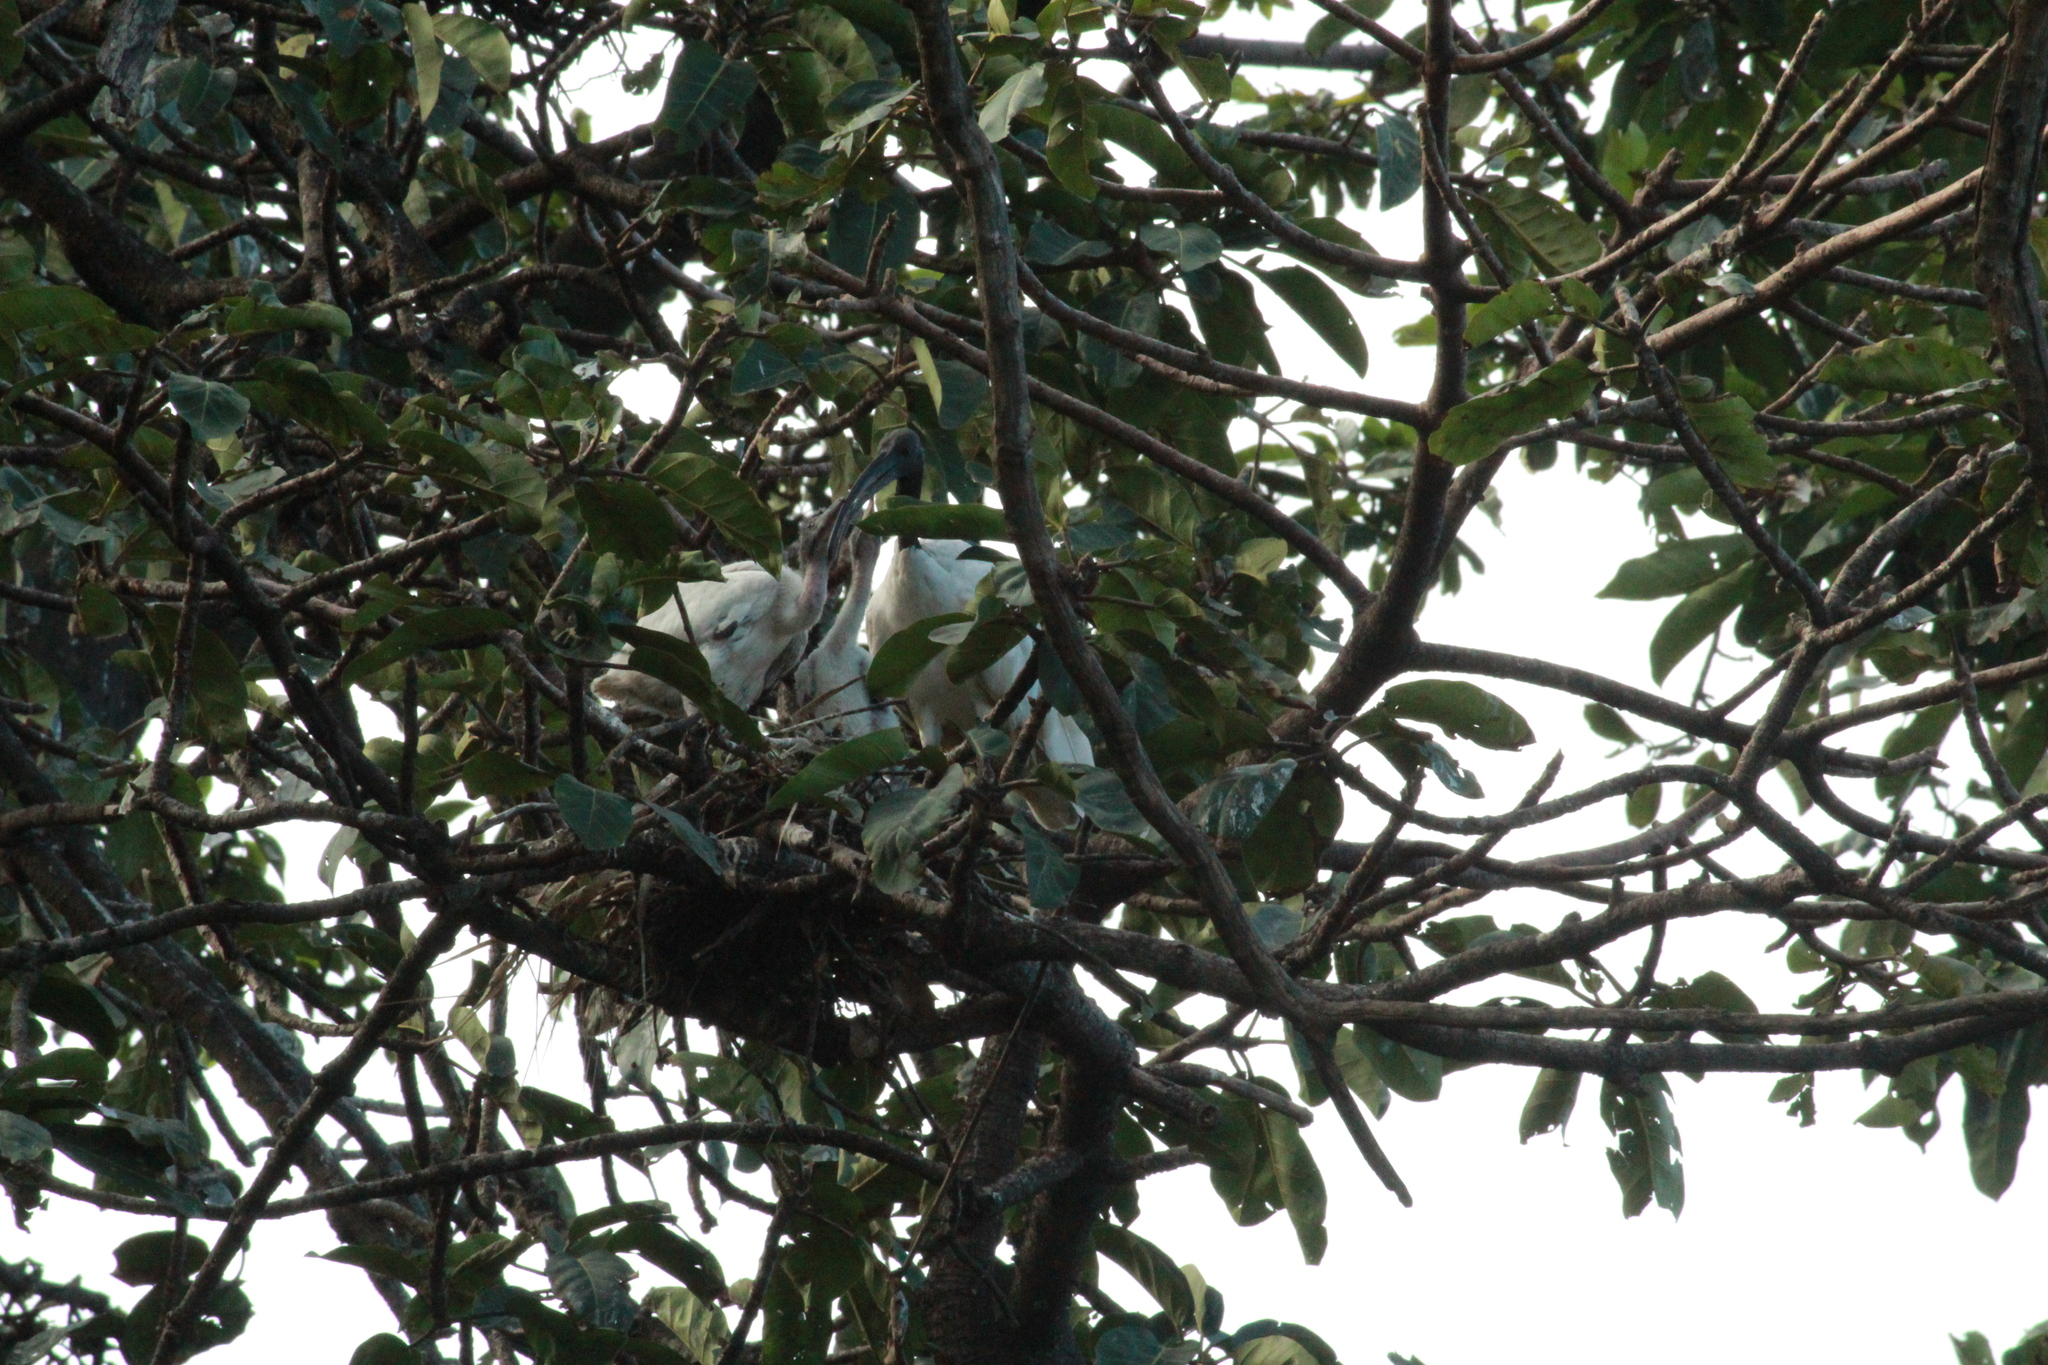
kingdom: Animalia
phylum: Chordata
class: Aves
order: Pelecaniformes
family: Threskiornithidae
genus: Threskiornis
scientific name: Threskiornis aethiopicus
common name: Sacred ibis
